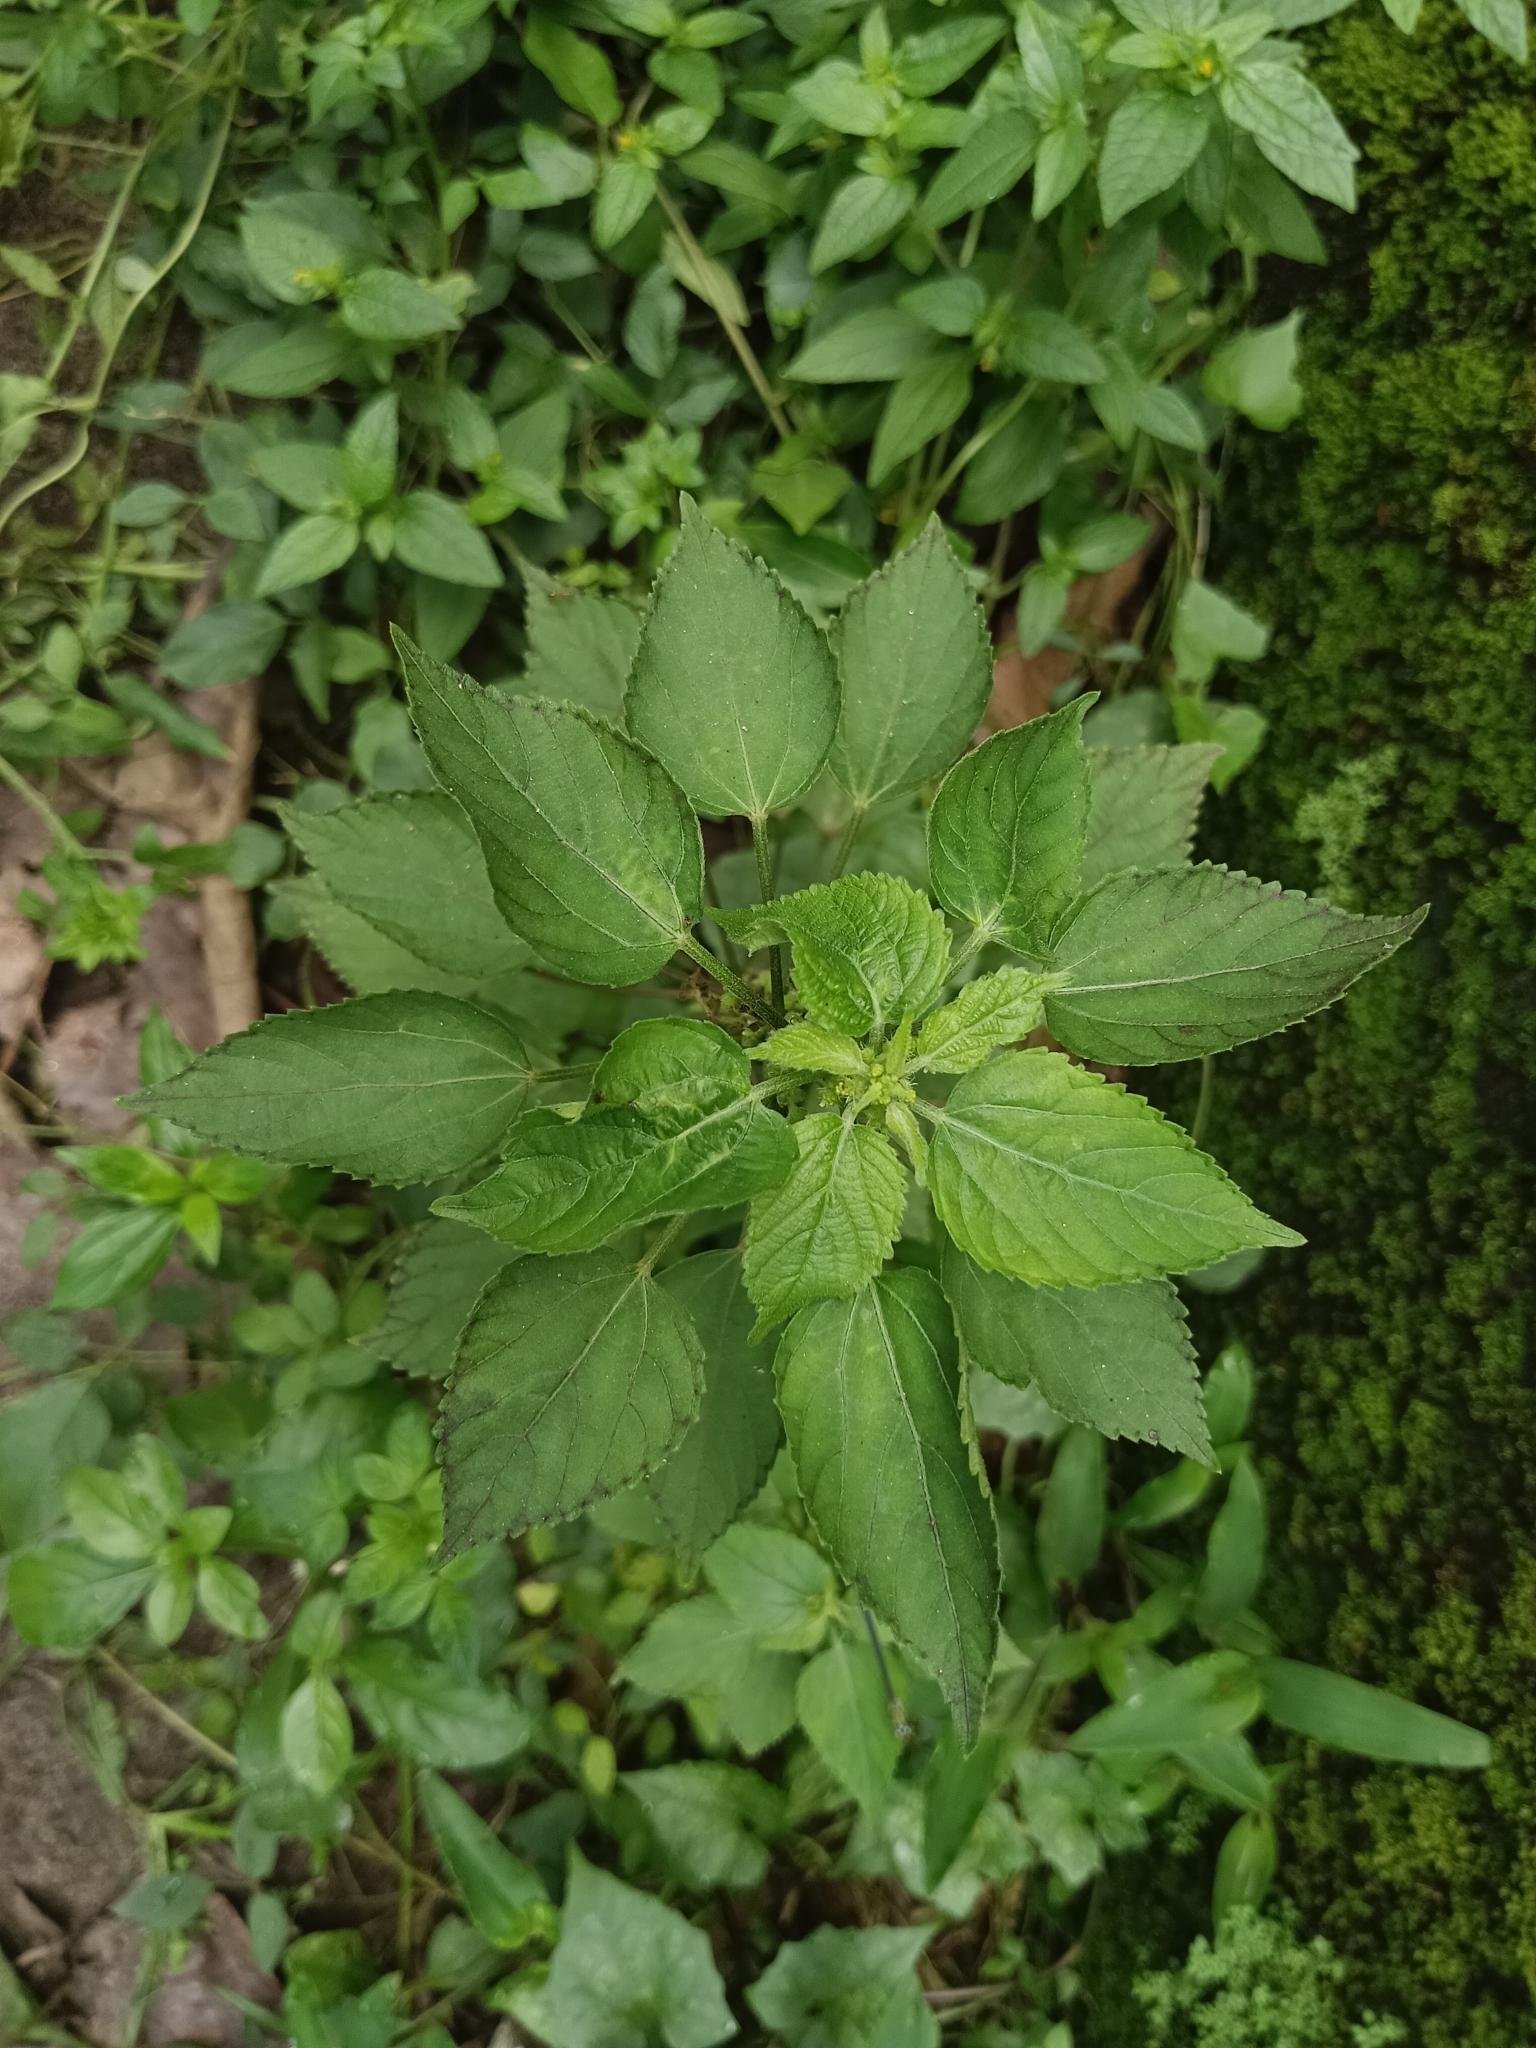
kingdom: Plantae
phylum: Tracheophyta
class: Magnoliopsida
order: Malpighiales
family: Euphorbiaceae
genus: Acalypha
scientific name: Acalypha indica
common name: Indian acalypha
